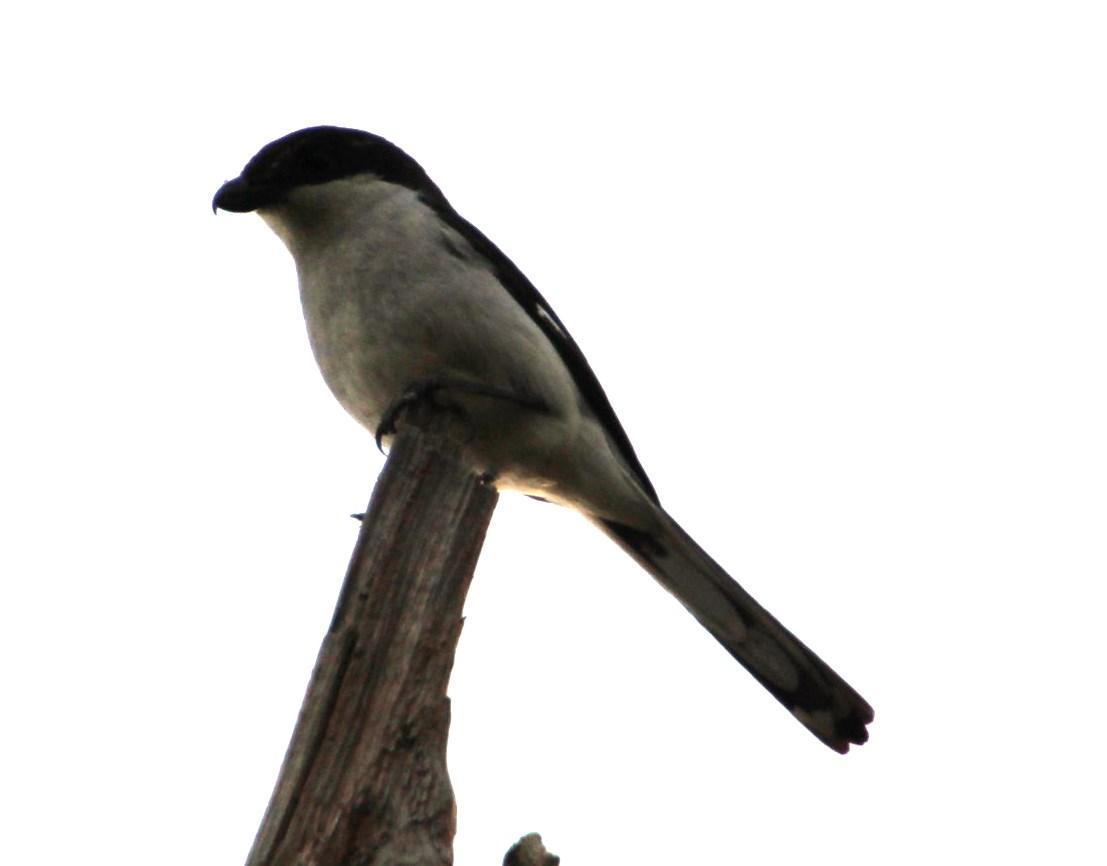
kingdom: Animalia
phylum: Chordata
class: Aves
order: Passeriformes
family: Laniidae
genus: Lanius
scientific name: Lanius collaris
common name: Southern fiscal
